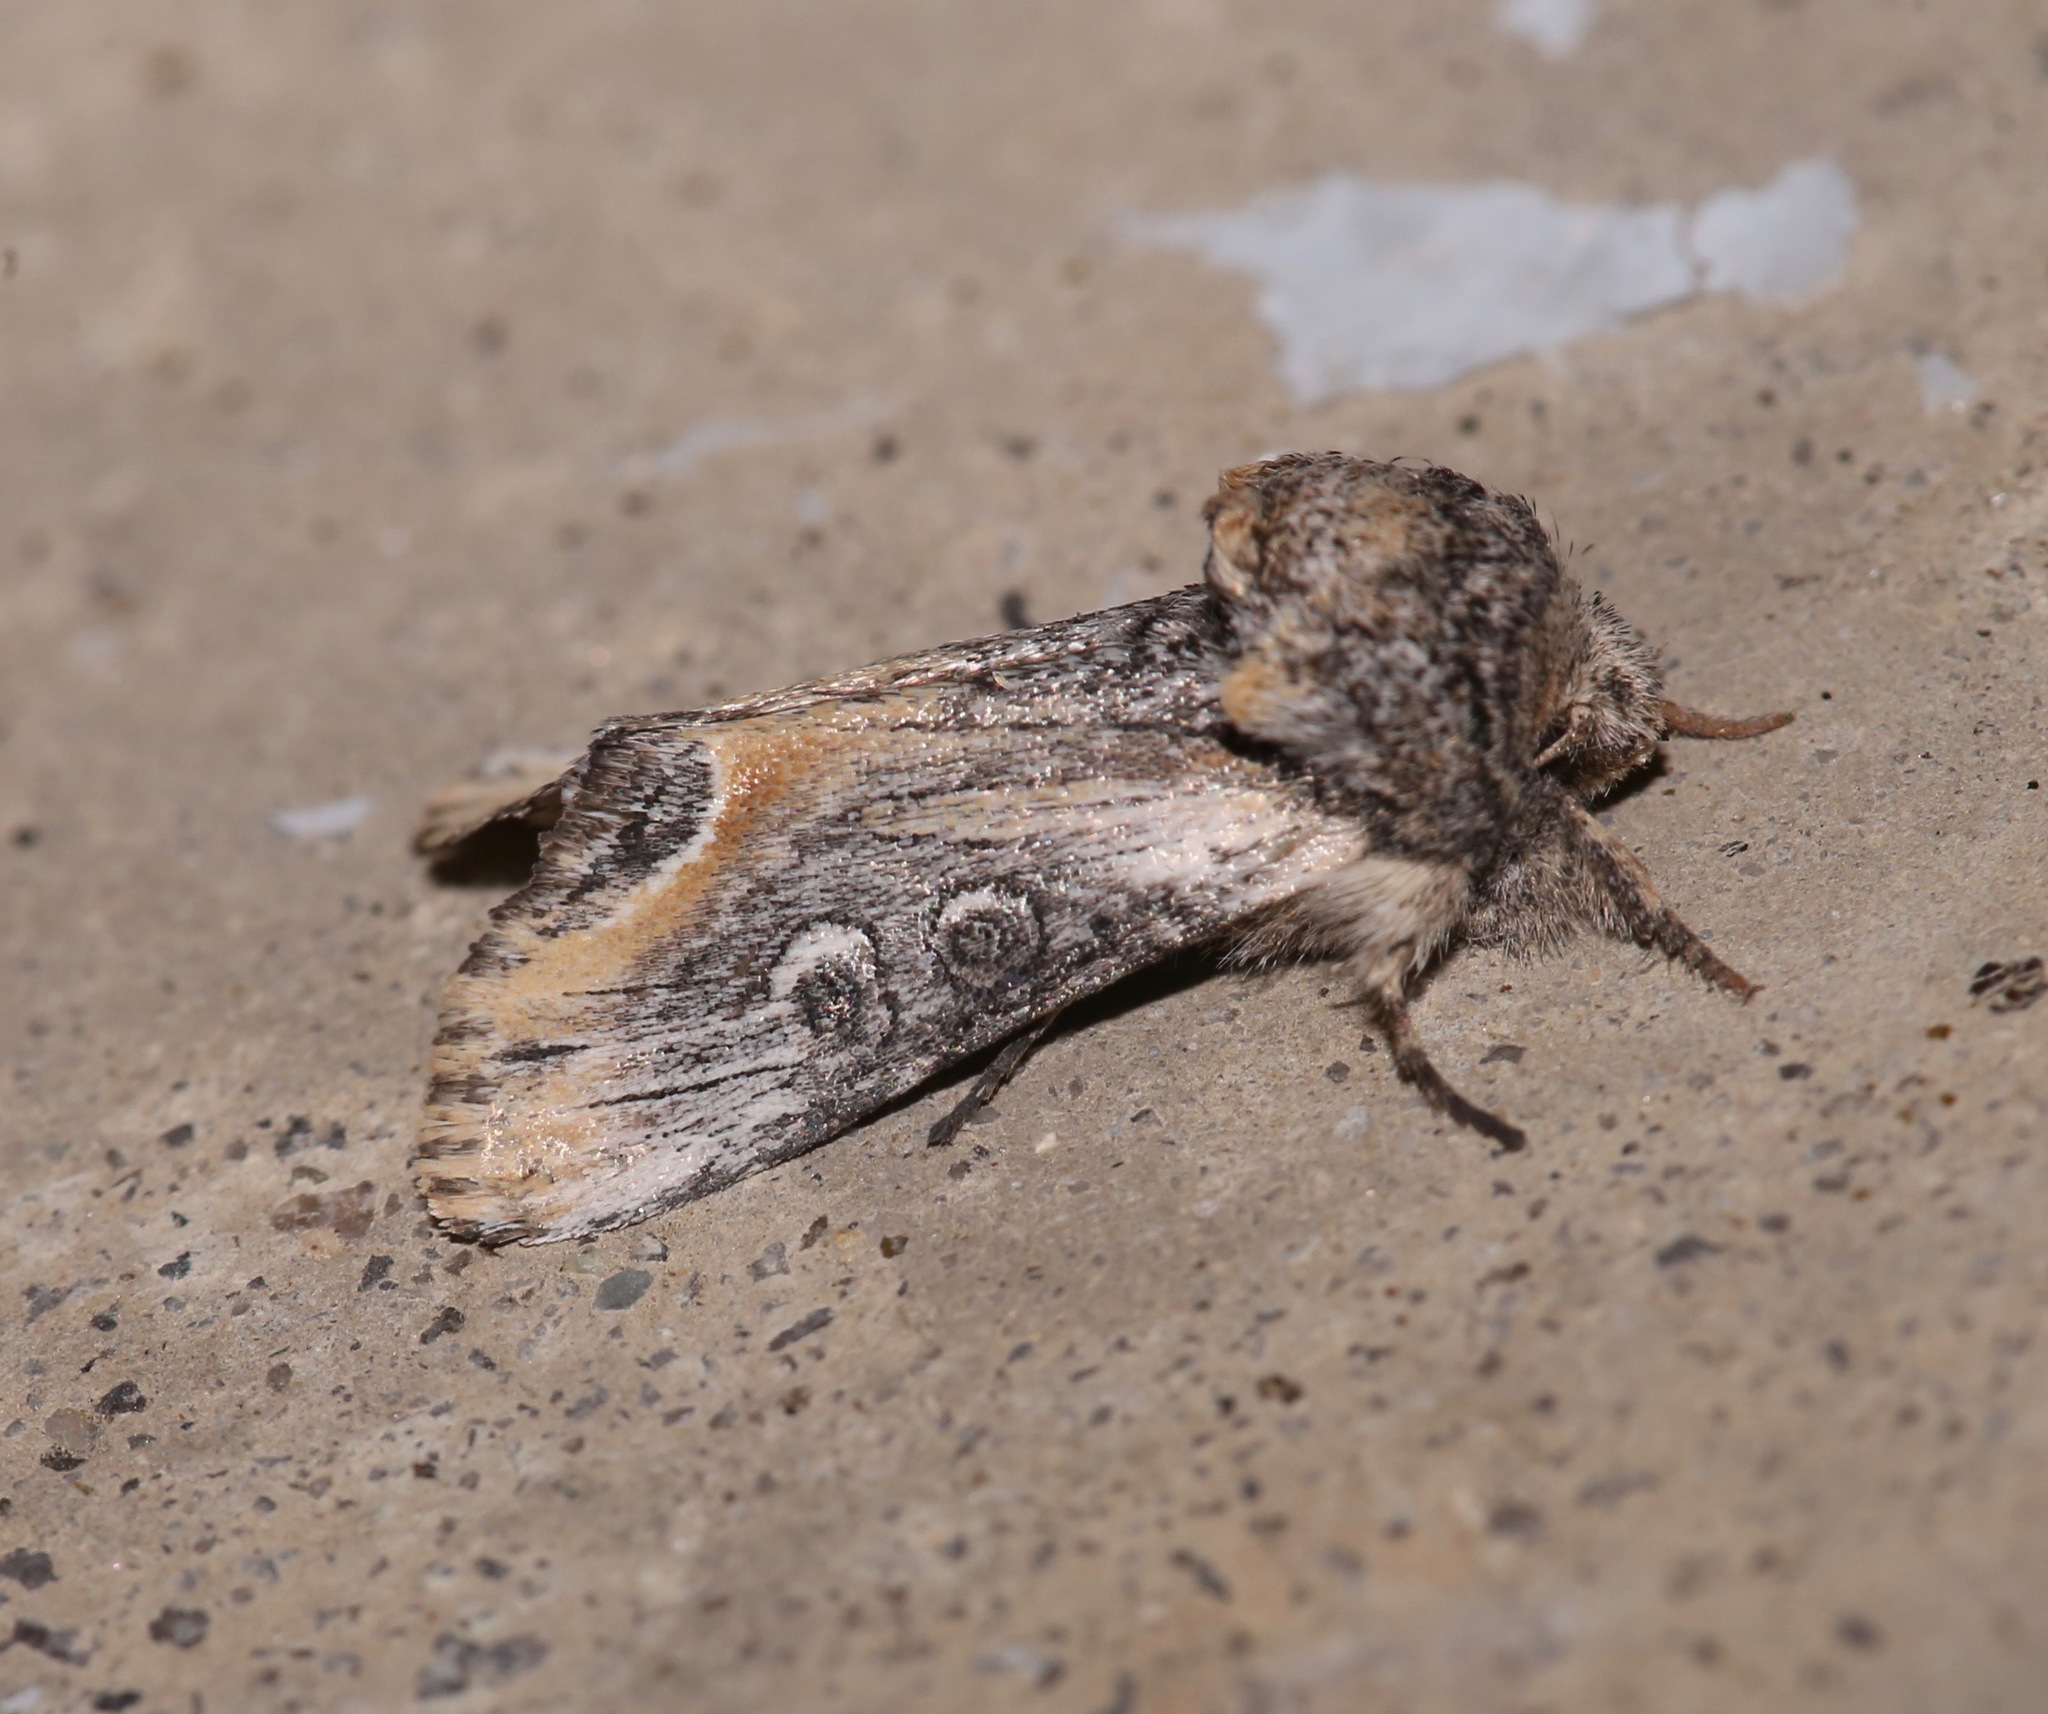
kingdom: Animalia
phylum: Arthropoda
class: Insecta
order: Lepidoptera
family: Noctuidae
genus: Walterella
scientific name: Walterella ocellata
